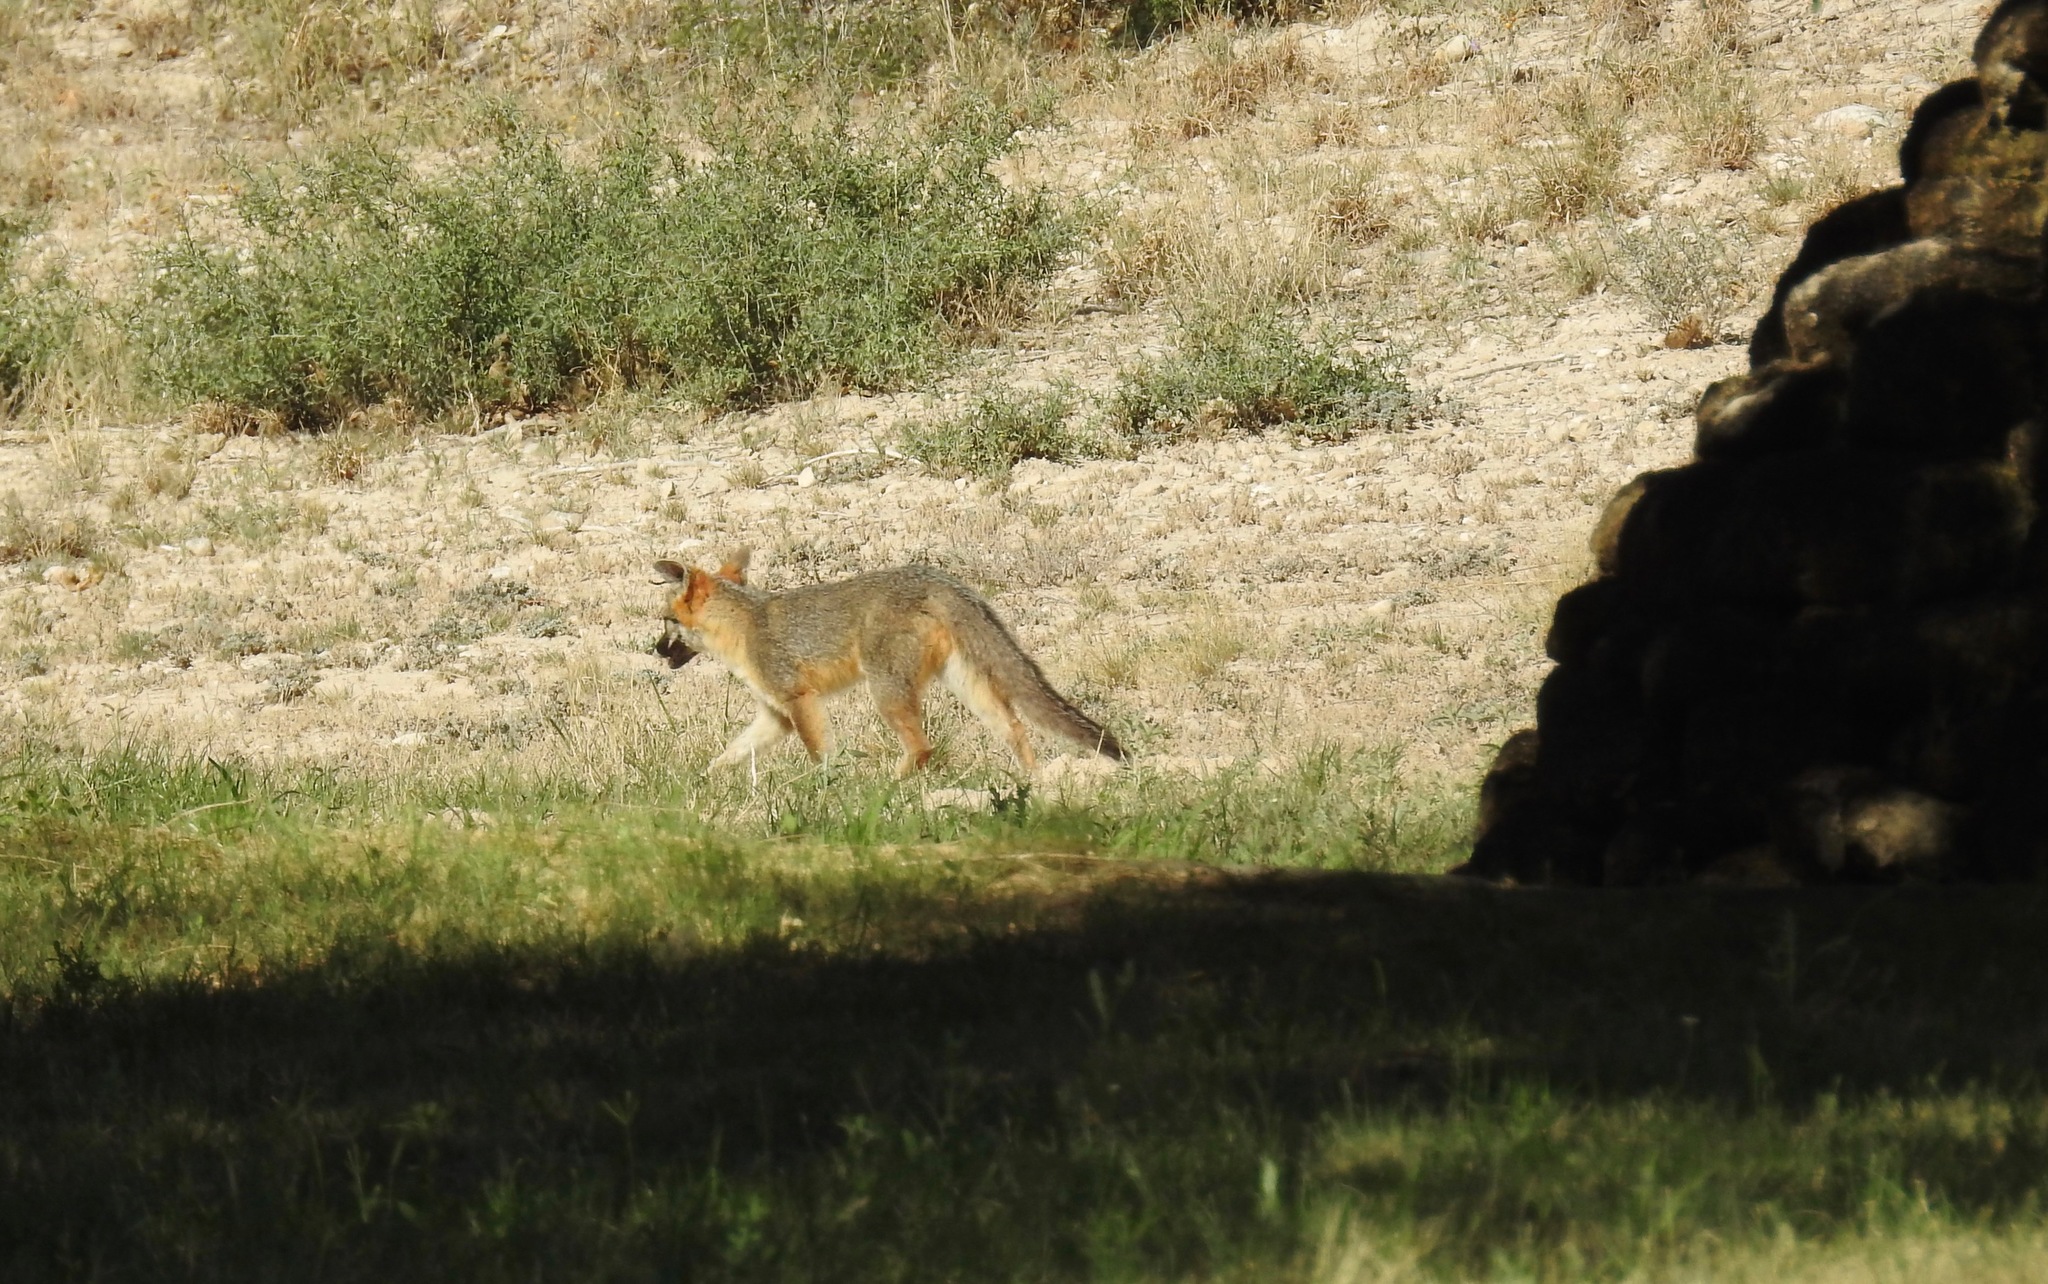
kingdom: Animalia
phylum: Chordata
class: Mammalia
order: Carnivora
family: Canidae
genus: Urocyon
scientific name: Urocyon cinereoargenteus
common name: Gray fox
